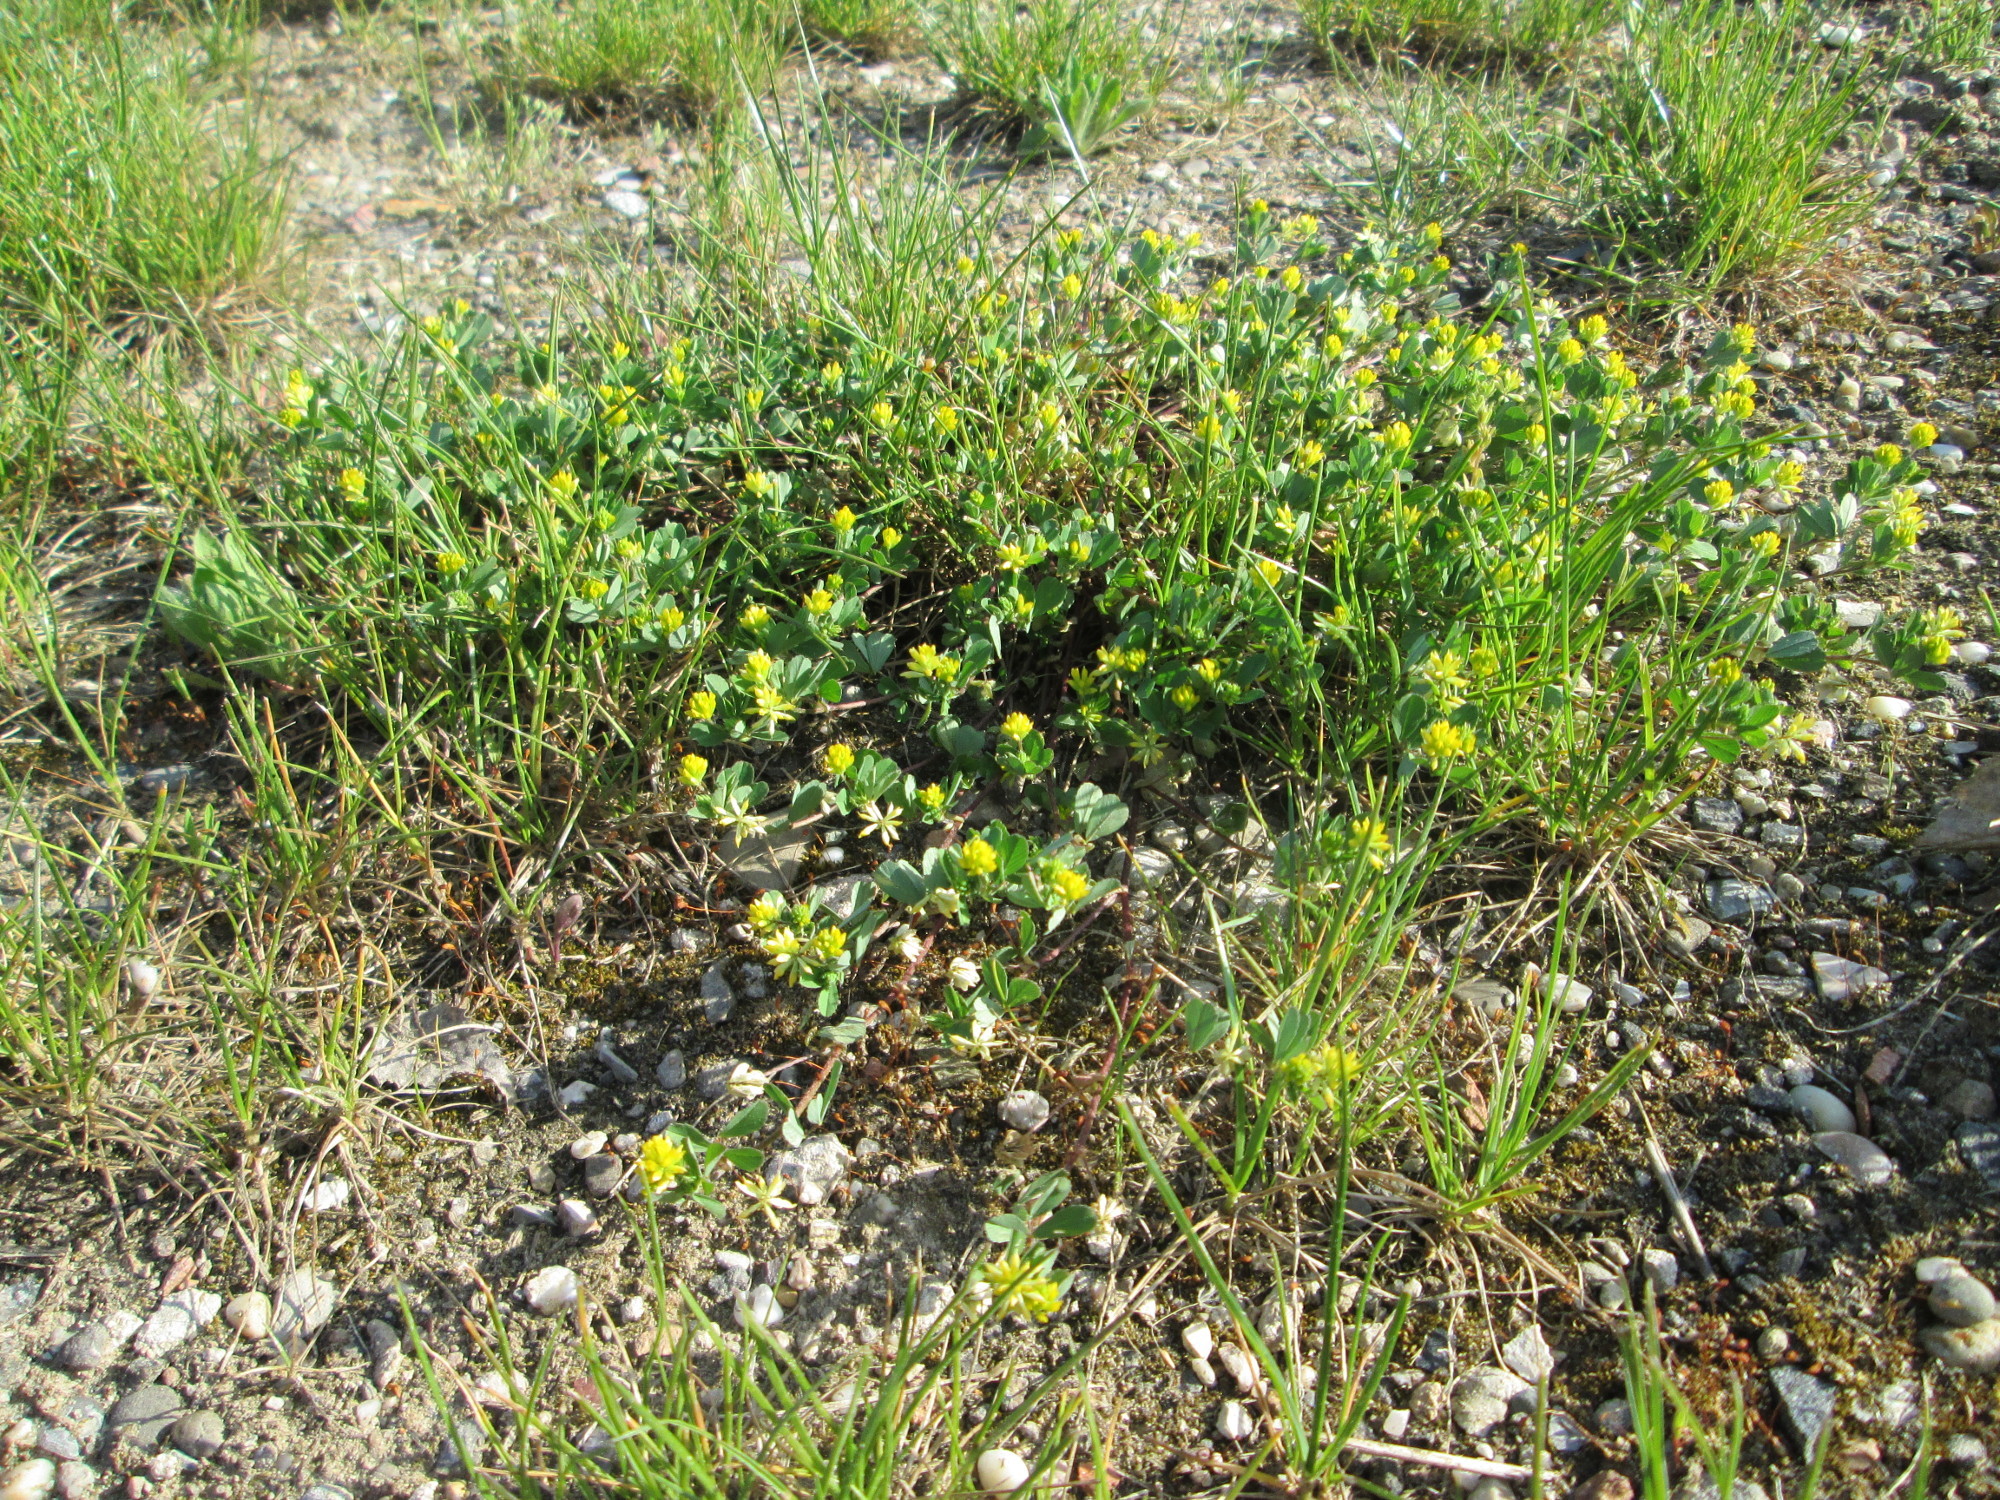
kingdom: Plantae
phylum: Tracheophyta
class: Magnoliopsida
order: Fabales
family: Fabaceae
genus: Medicago
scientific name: Medicago minima
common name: Little bur-clover
